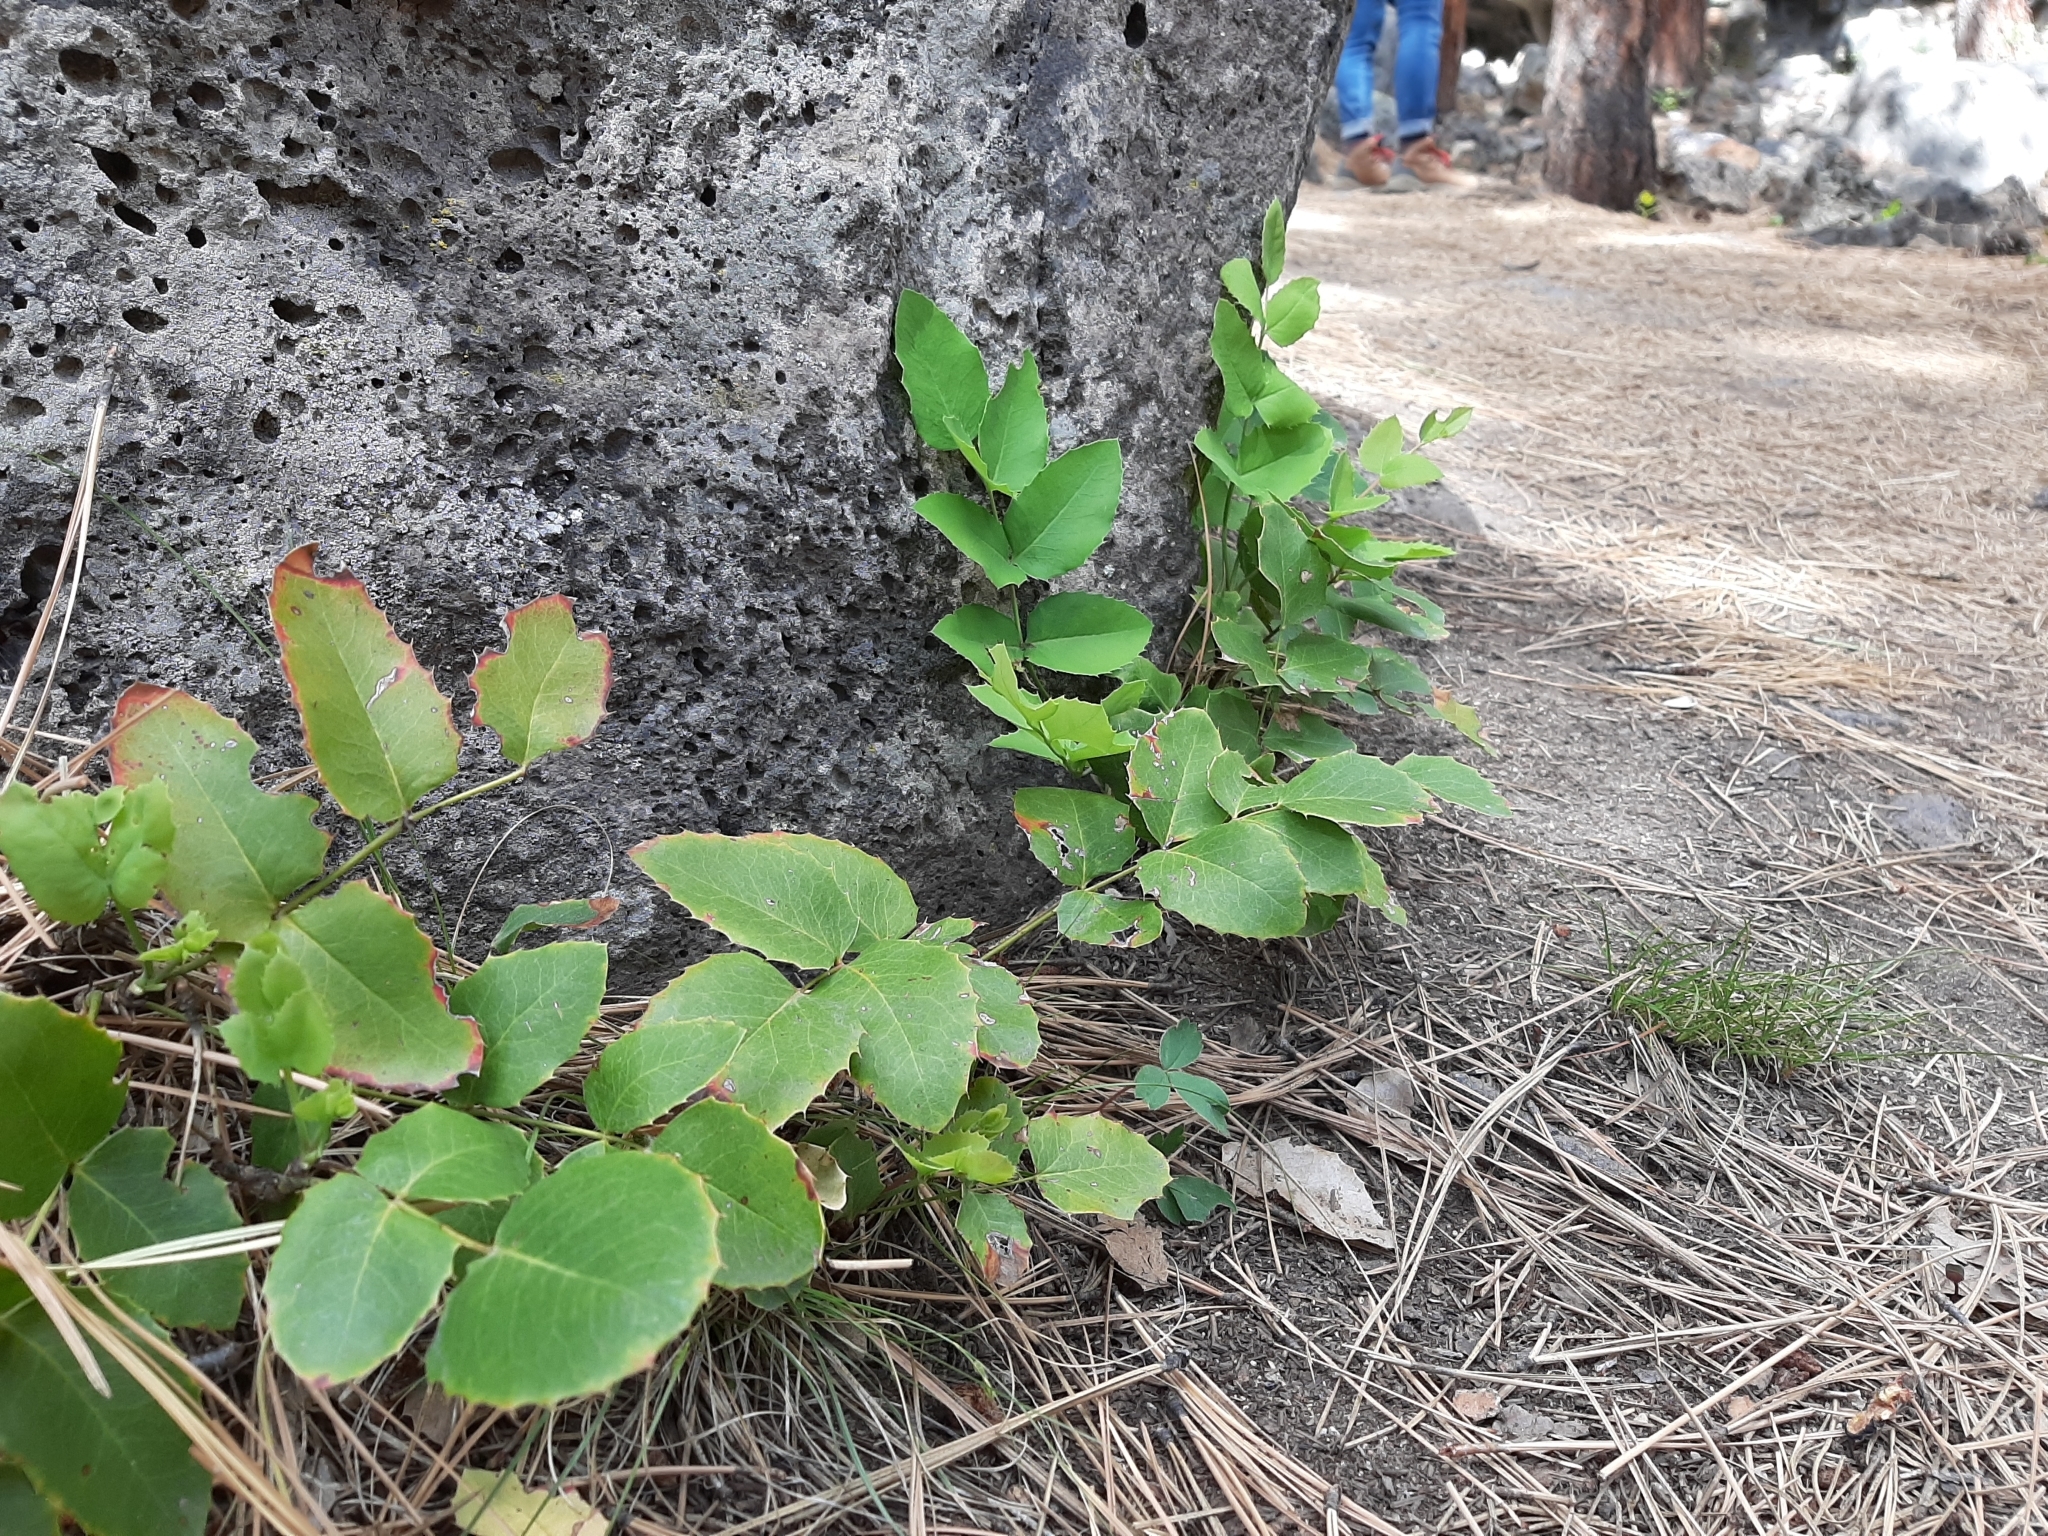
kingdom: Plantae
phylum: Tracheophyta
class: Magnoliopsida
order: Ranunculales
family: Berberidaceae
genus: Mahonia
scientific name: Mahonia repens
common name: Creeping oregon-grape
